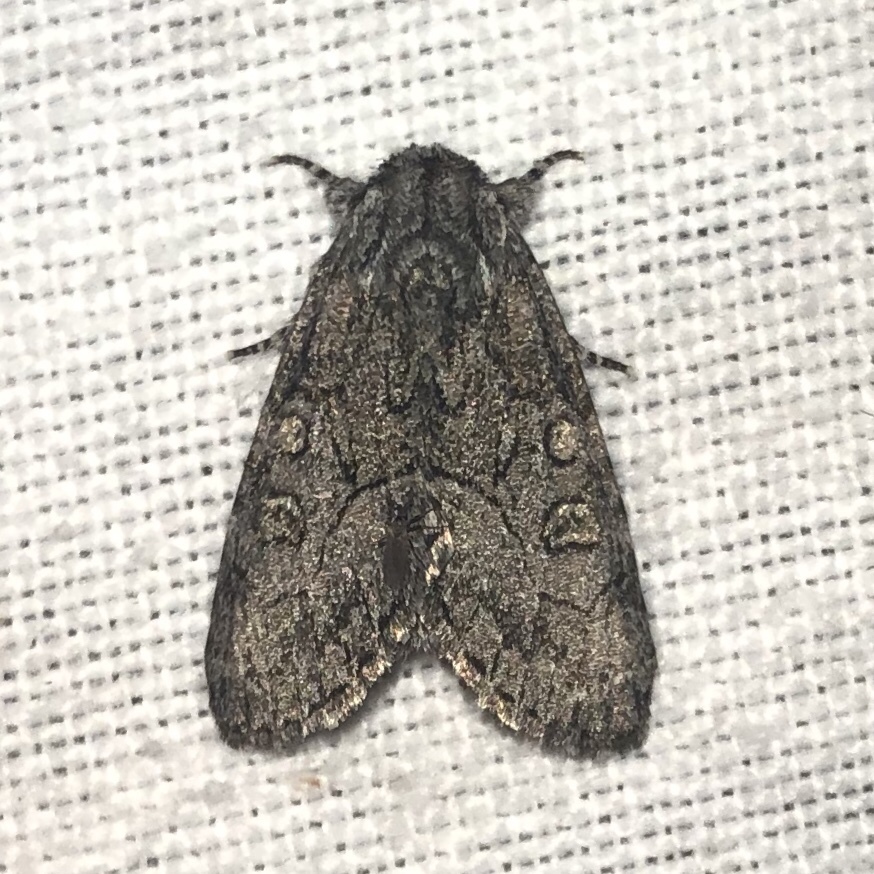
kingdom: Animalia
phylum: Arthropoda
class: Insecta
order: Lepidoptera
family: Noctuidae
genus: Raphia
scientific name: Raphia frater
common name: Brother
